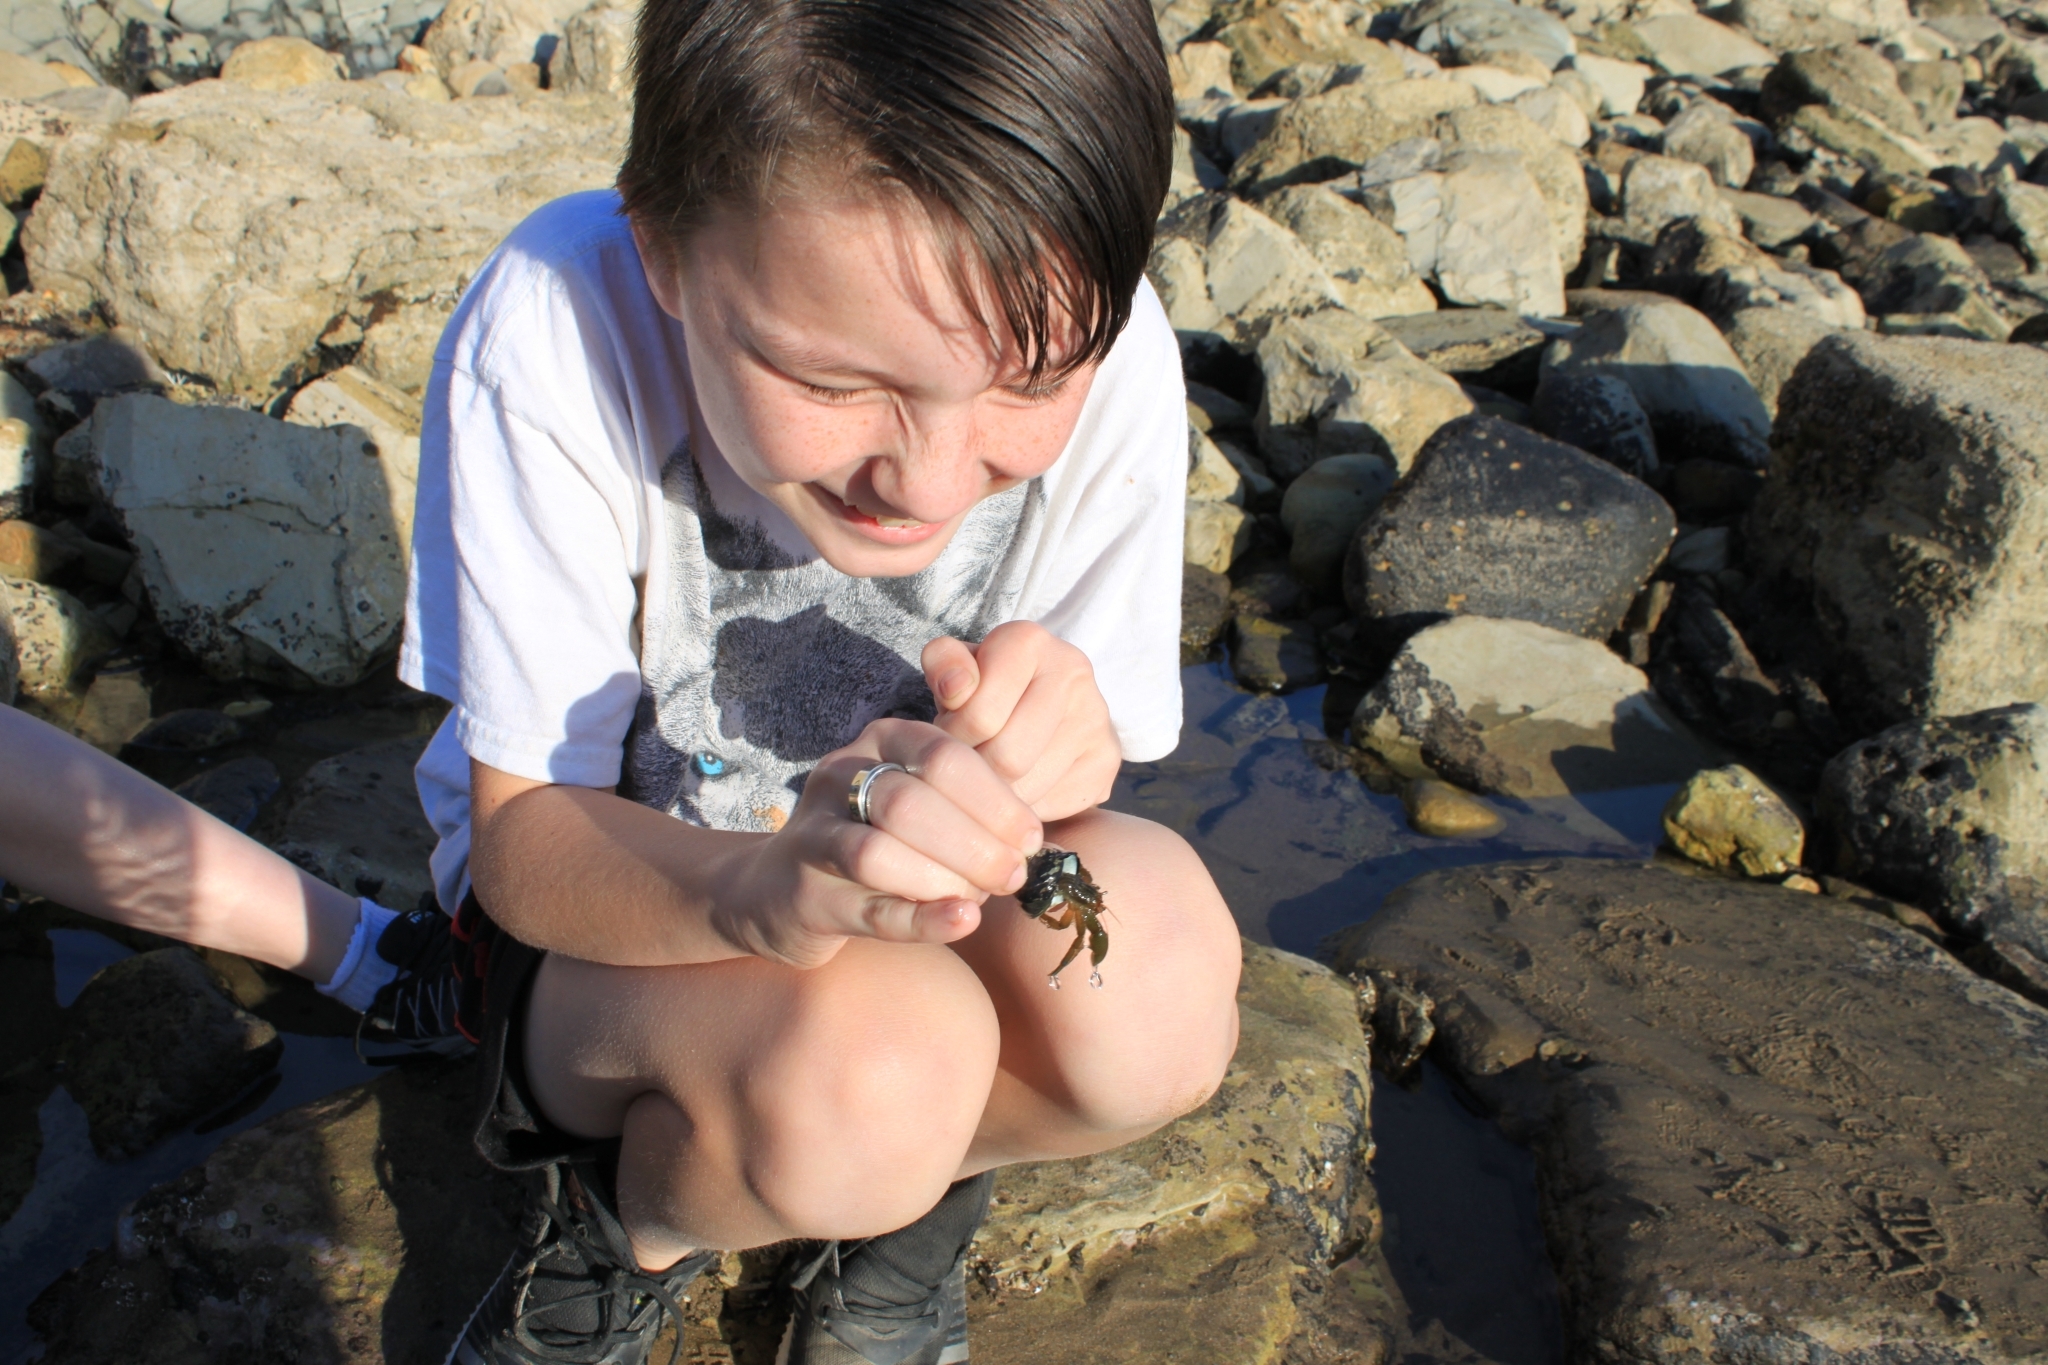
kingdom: Animalia
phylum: Arthropoda
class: Malacostraca
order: Decapoda
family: Paguridae
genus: Pagurus
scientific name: Pagurus samuelis
